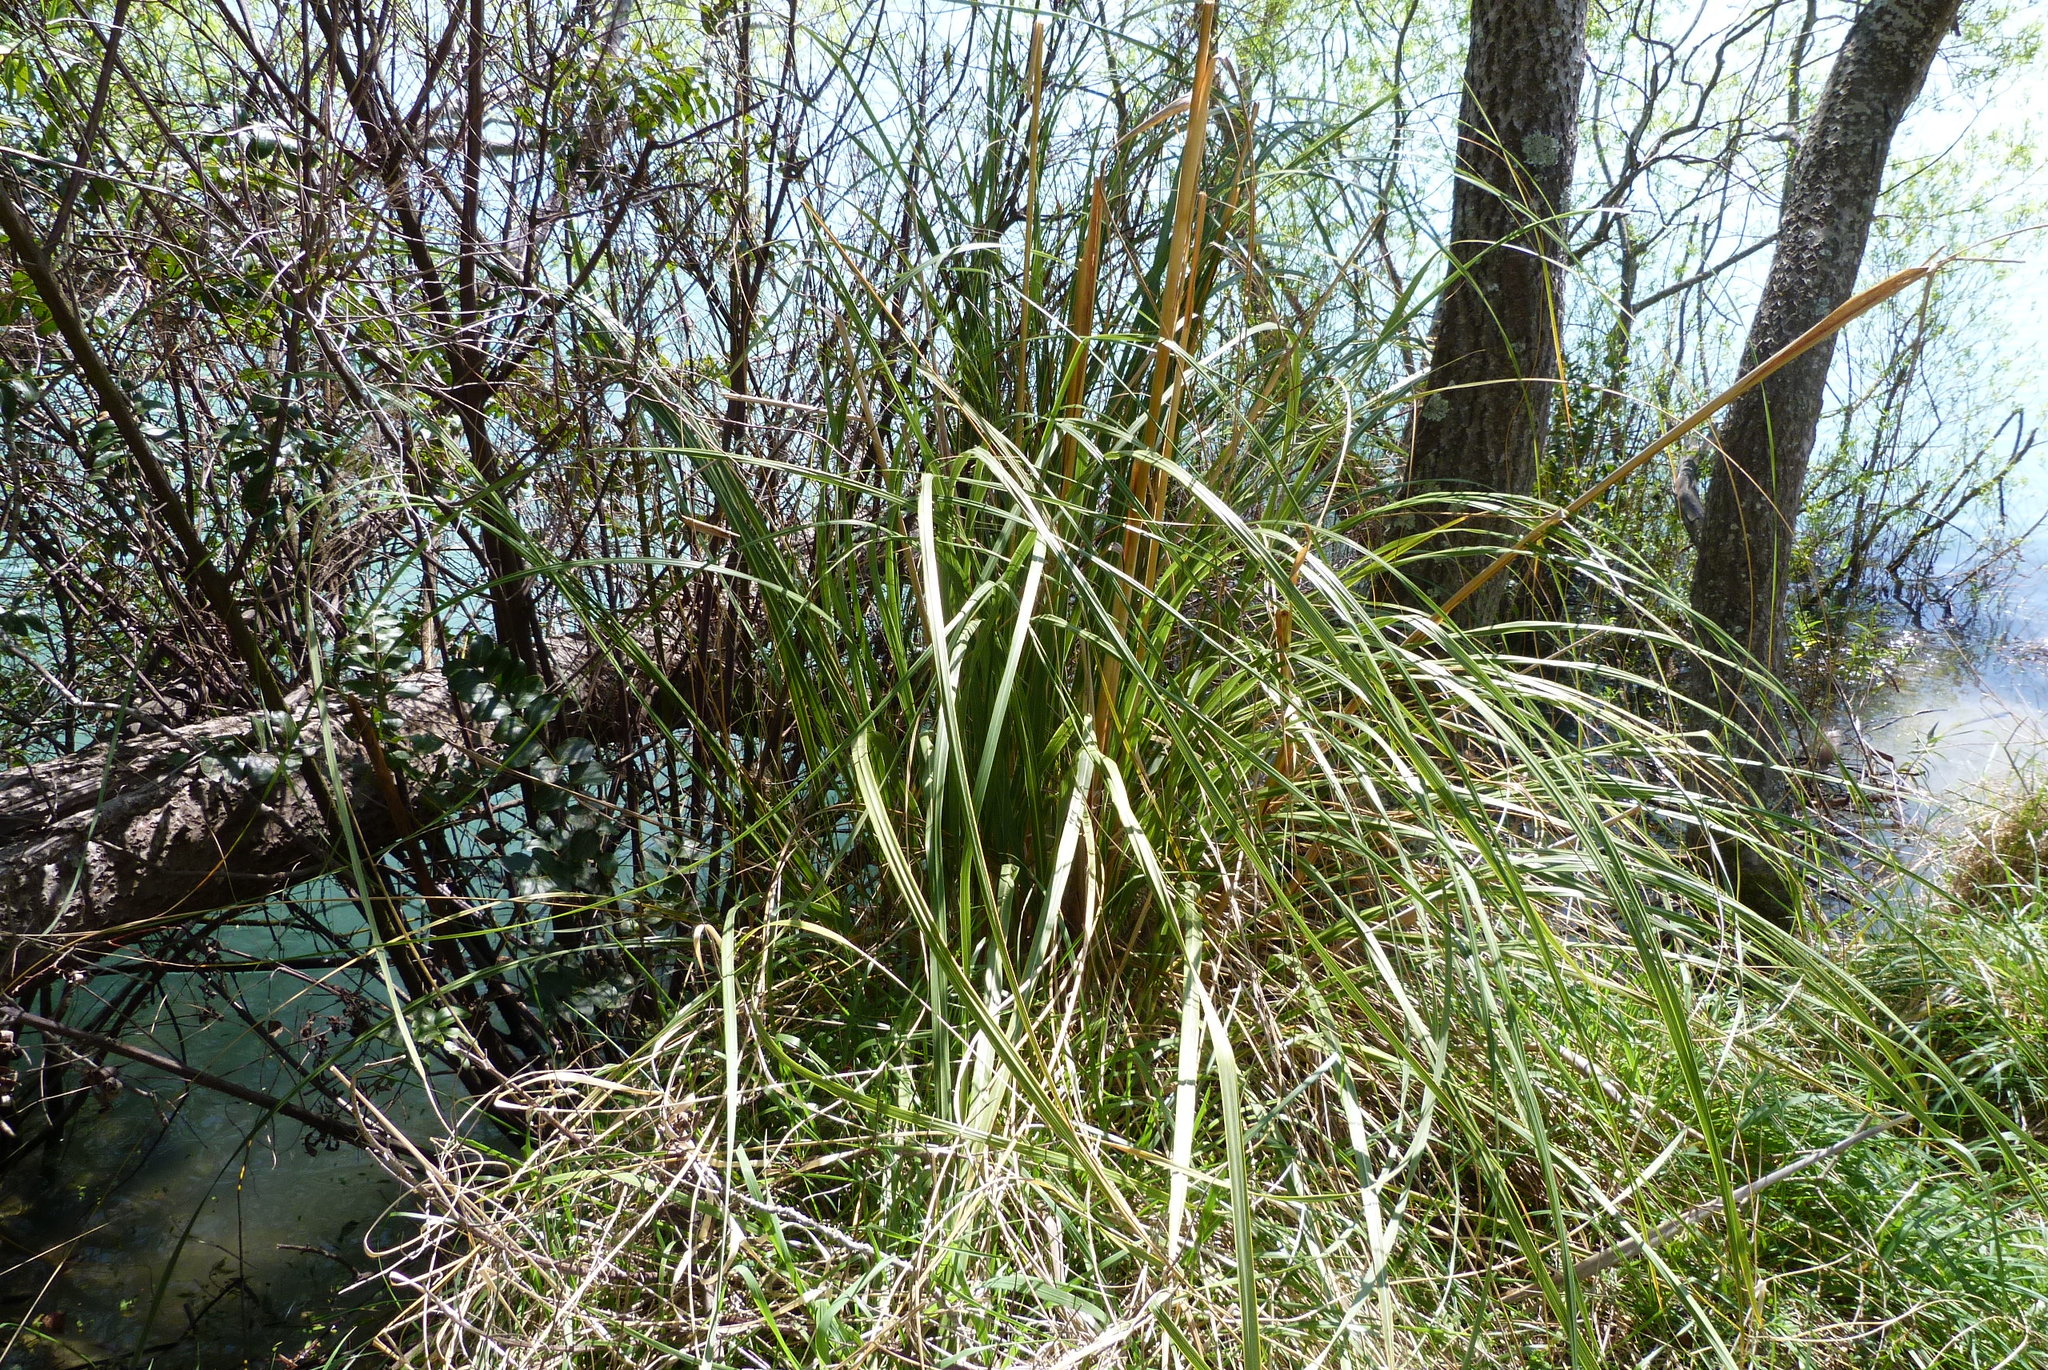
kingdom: Plantae
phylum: Tracheophyta
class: Liliopsida
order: Poales
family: Poaceae
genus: Austroderia
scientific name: Austroderia richardii
